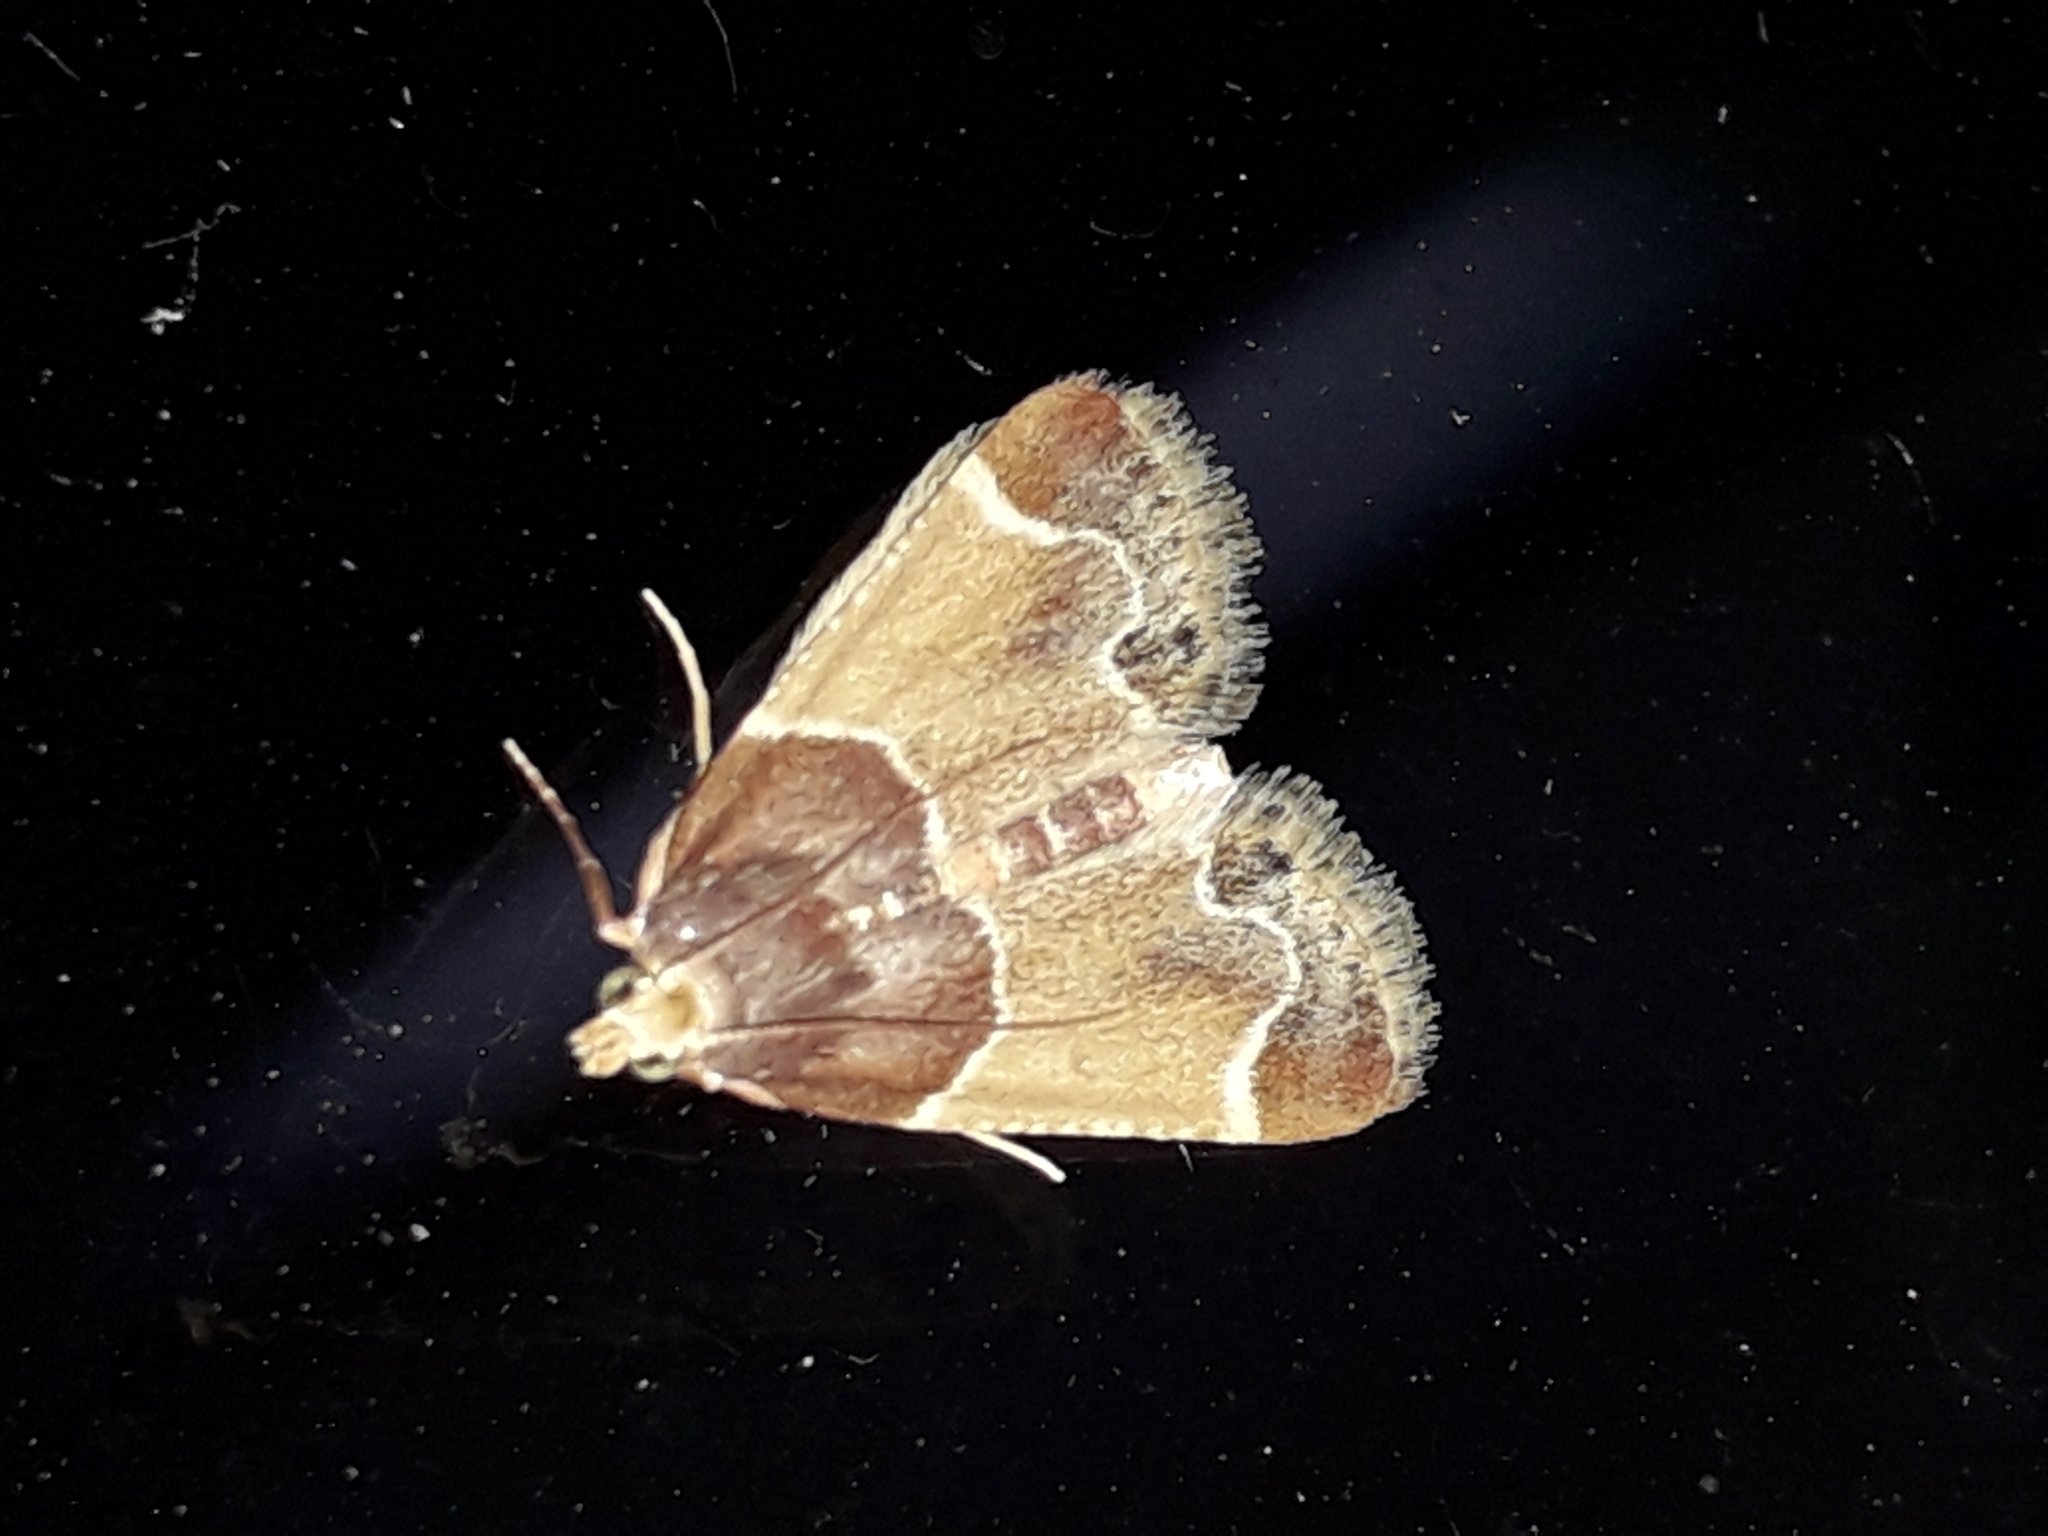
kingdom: Animalia
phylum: Arthropoda
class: Insecta
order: Lepidoptera
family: Pyralidae
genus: Pyralis
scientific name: Pyralis farinalis
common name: Meal moth
